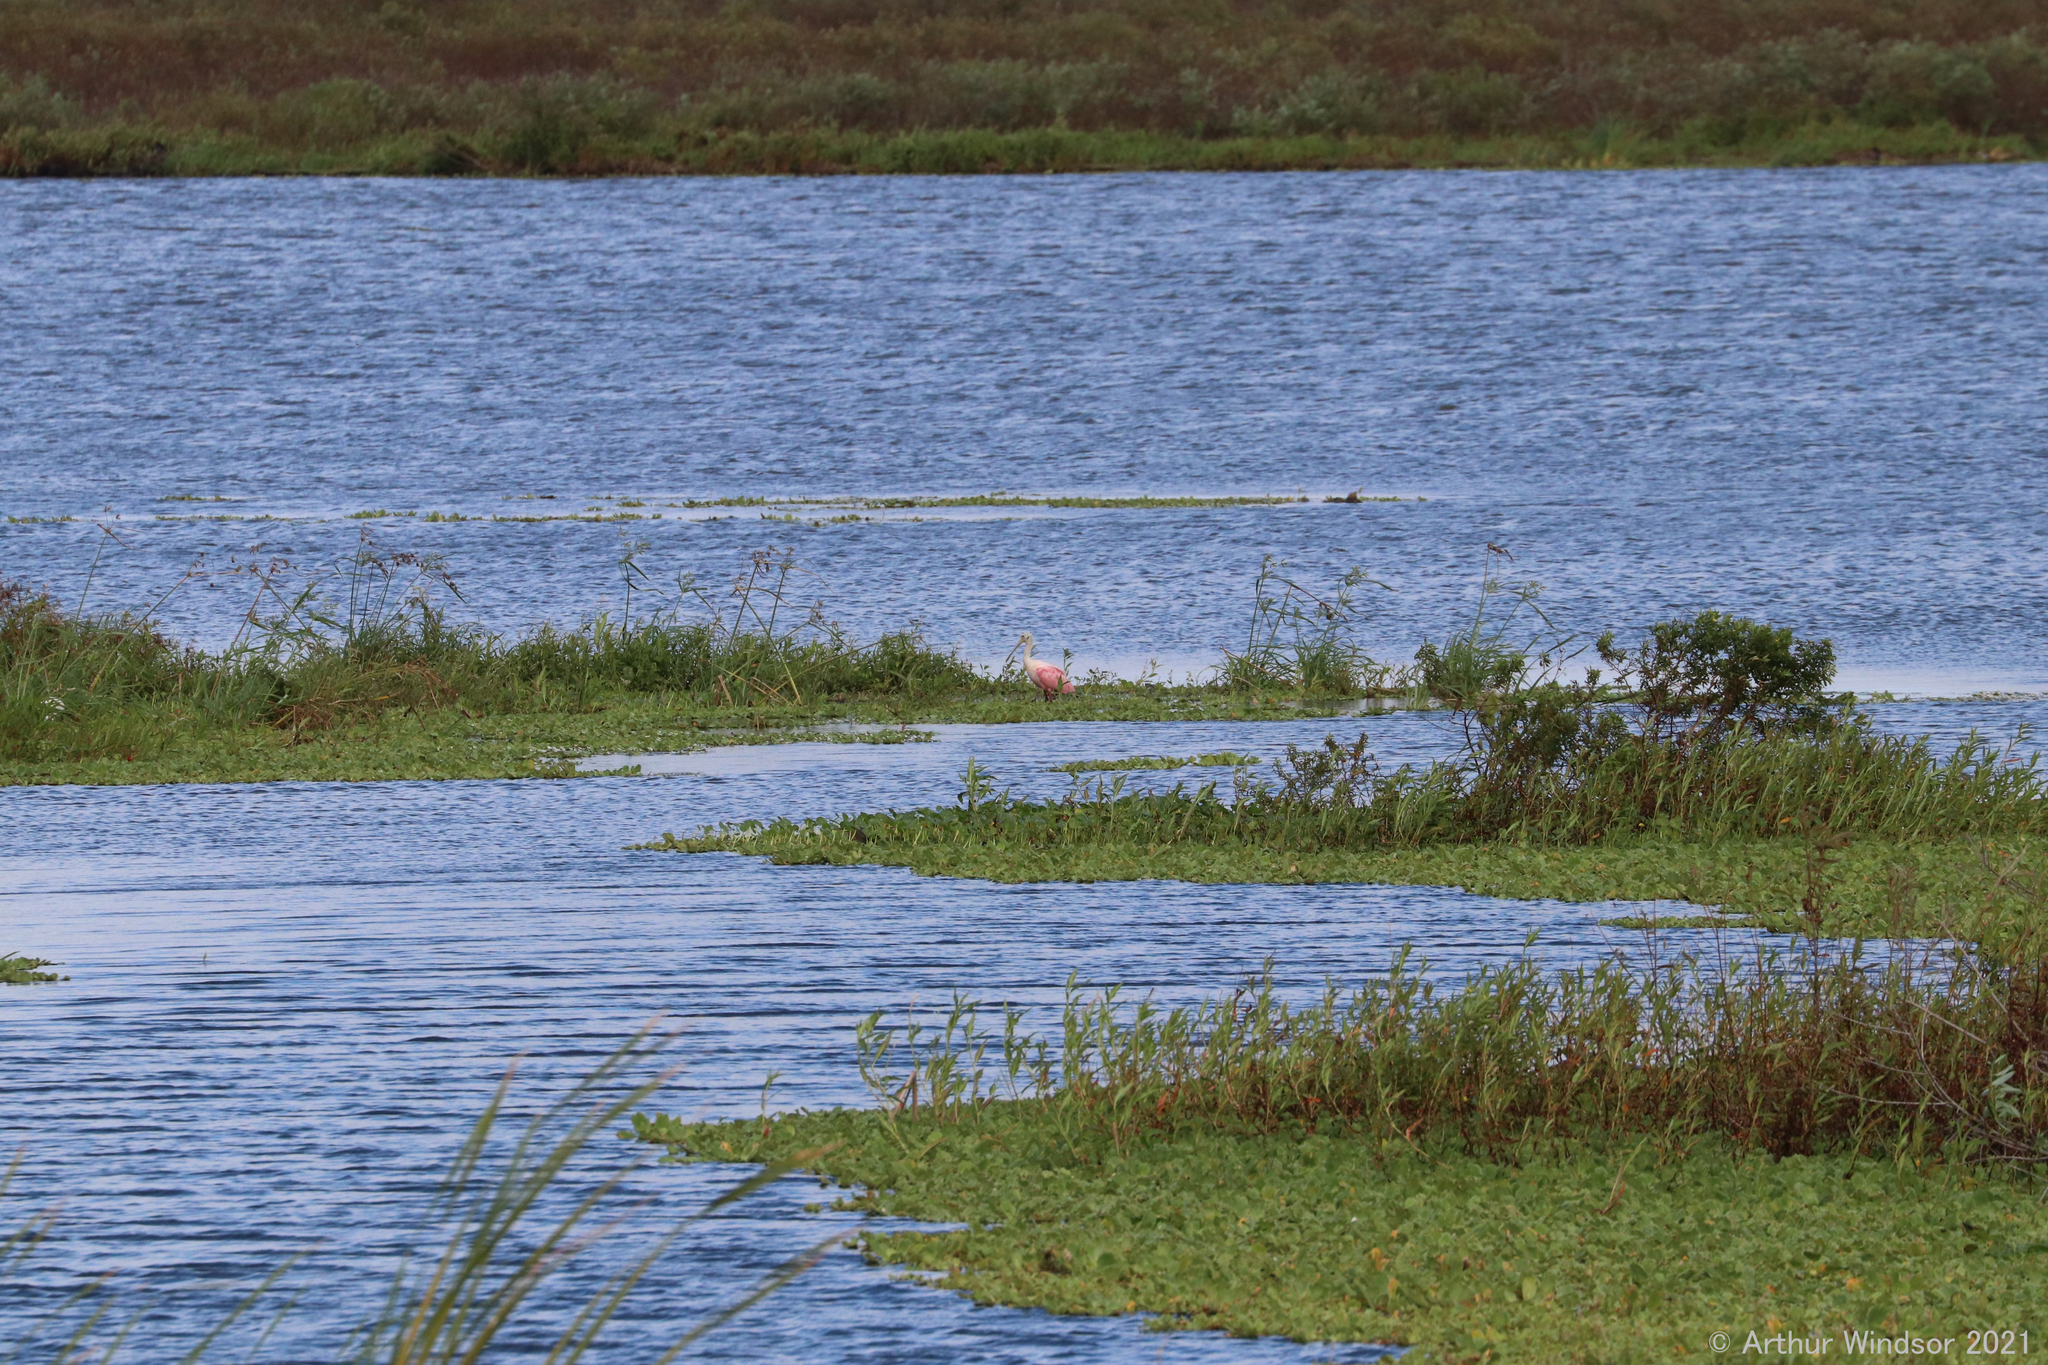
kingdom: Animalia
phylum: Chordata
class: Aves
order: Pelecaniformes
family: Threskiornithidae
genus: Platalea
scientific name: Platalea ajaja
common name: Roseate spoonbill
